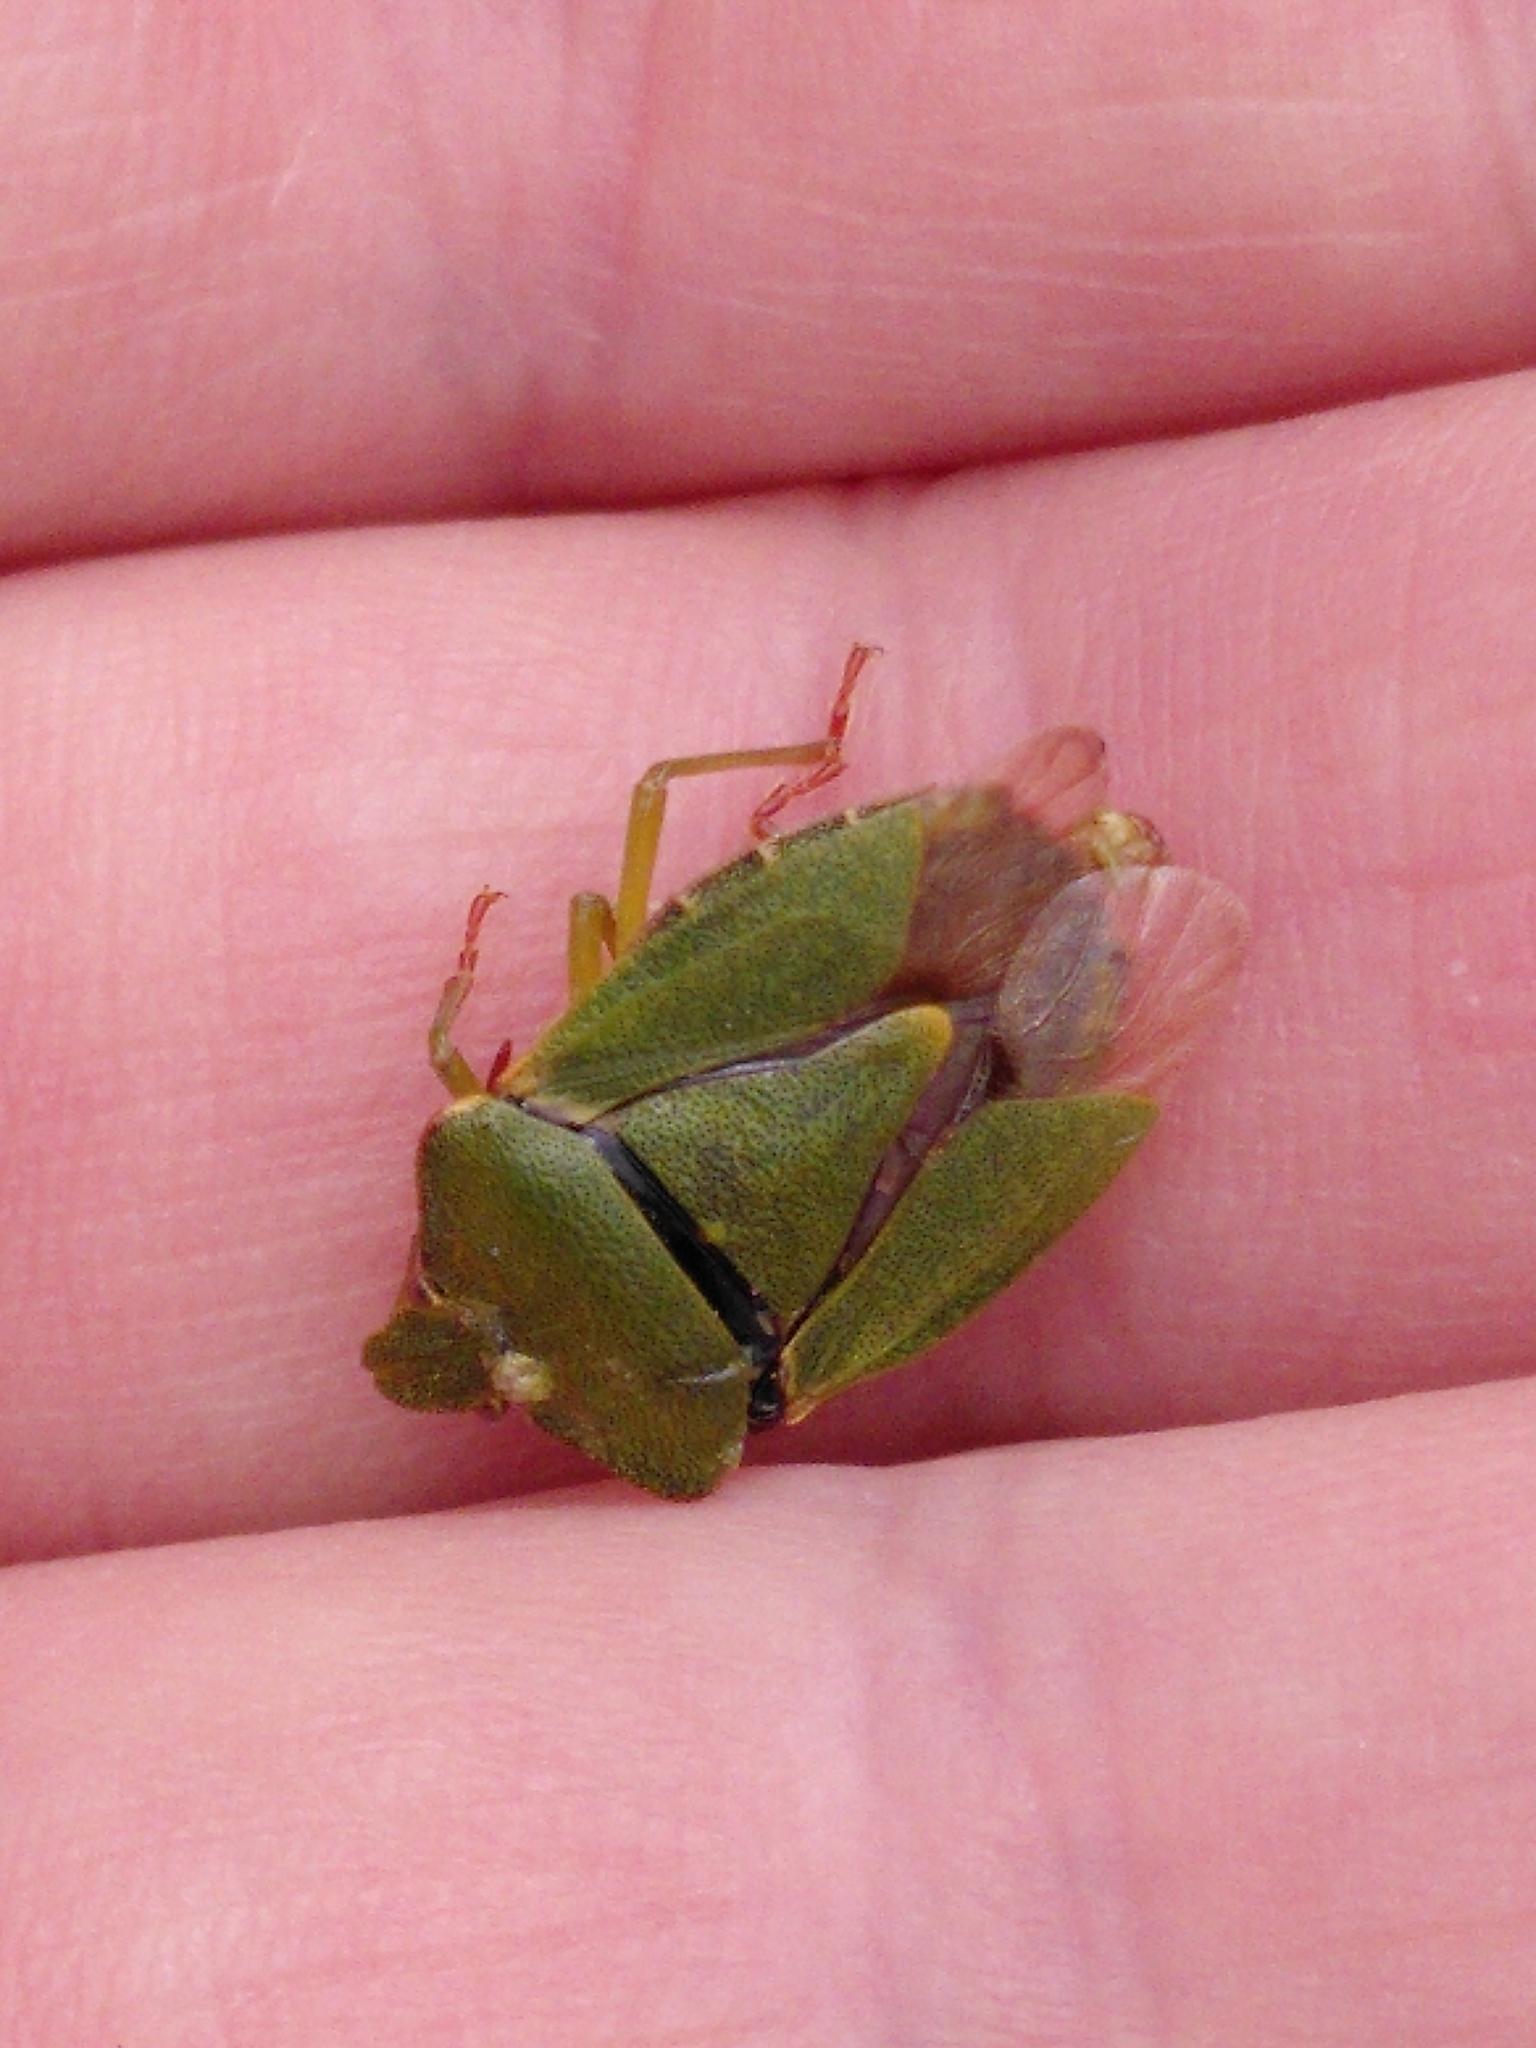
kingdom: Animalia
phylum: Arthropoda
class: Insecta
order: Hemiptera
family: Pentatomidae
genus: Palomena
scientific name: Palomena prasina
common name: Green shieldbug
